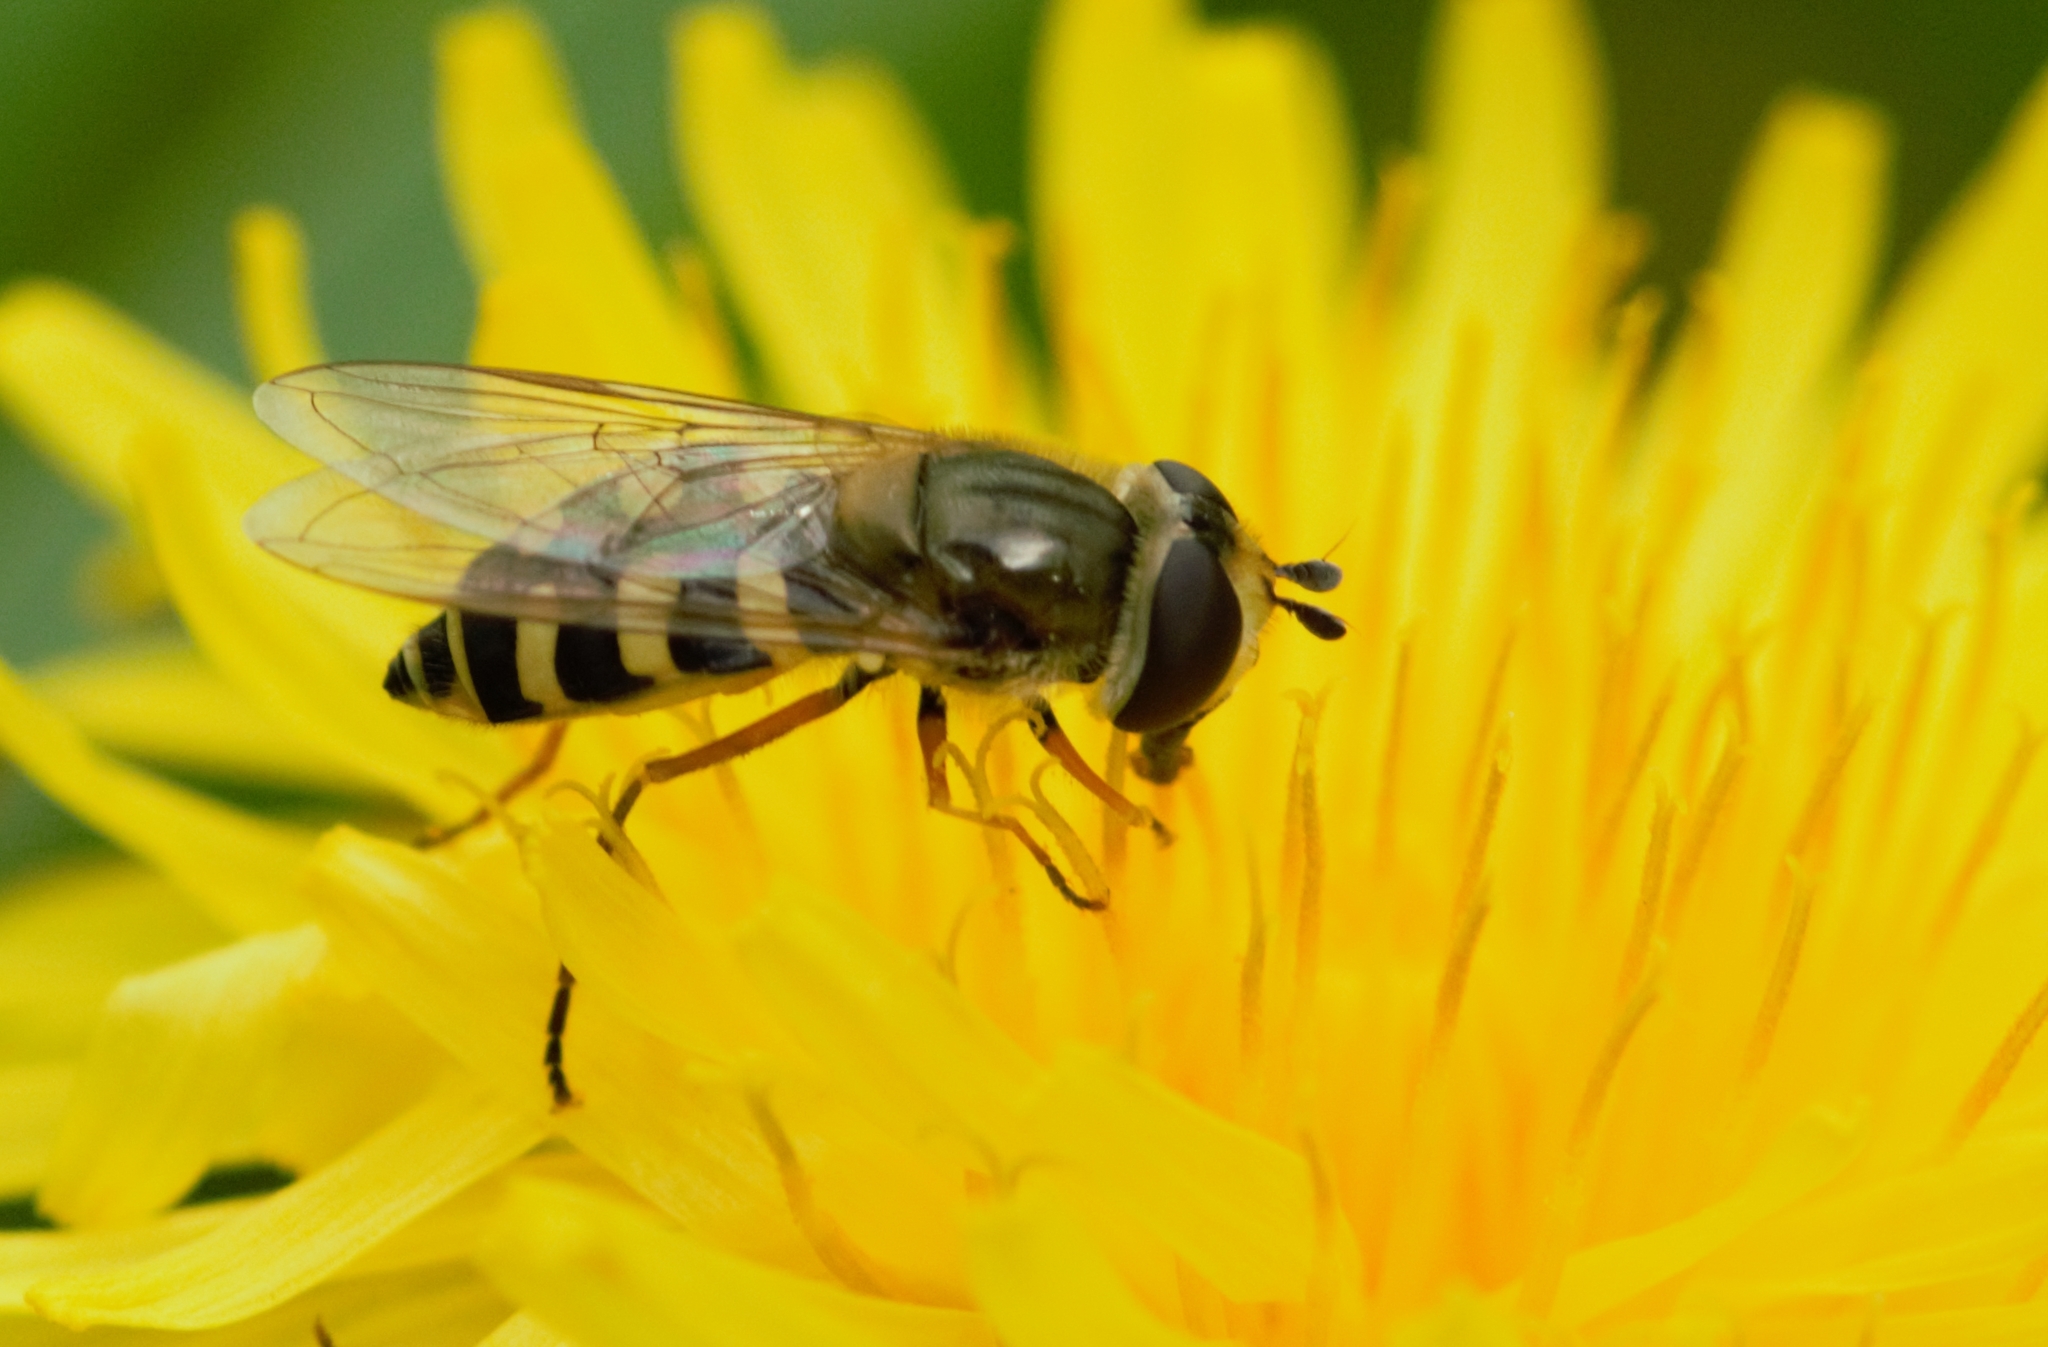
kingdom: Animalia
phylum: Arthropoda
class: Insecta
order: Diptera
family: Syrphidae
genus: Eupeodes
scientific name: Eupeodes corollae
